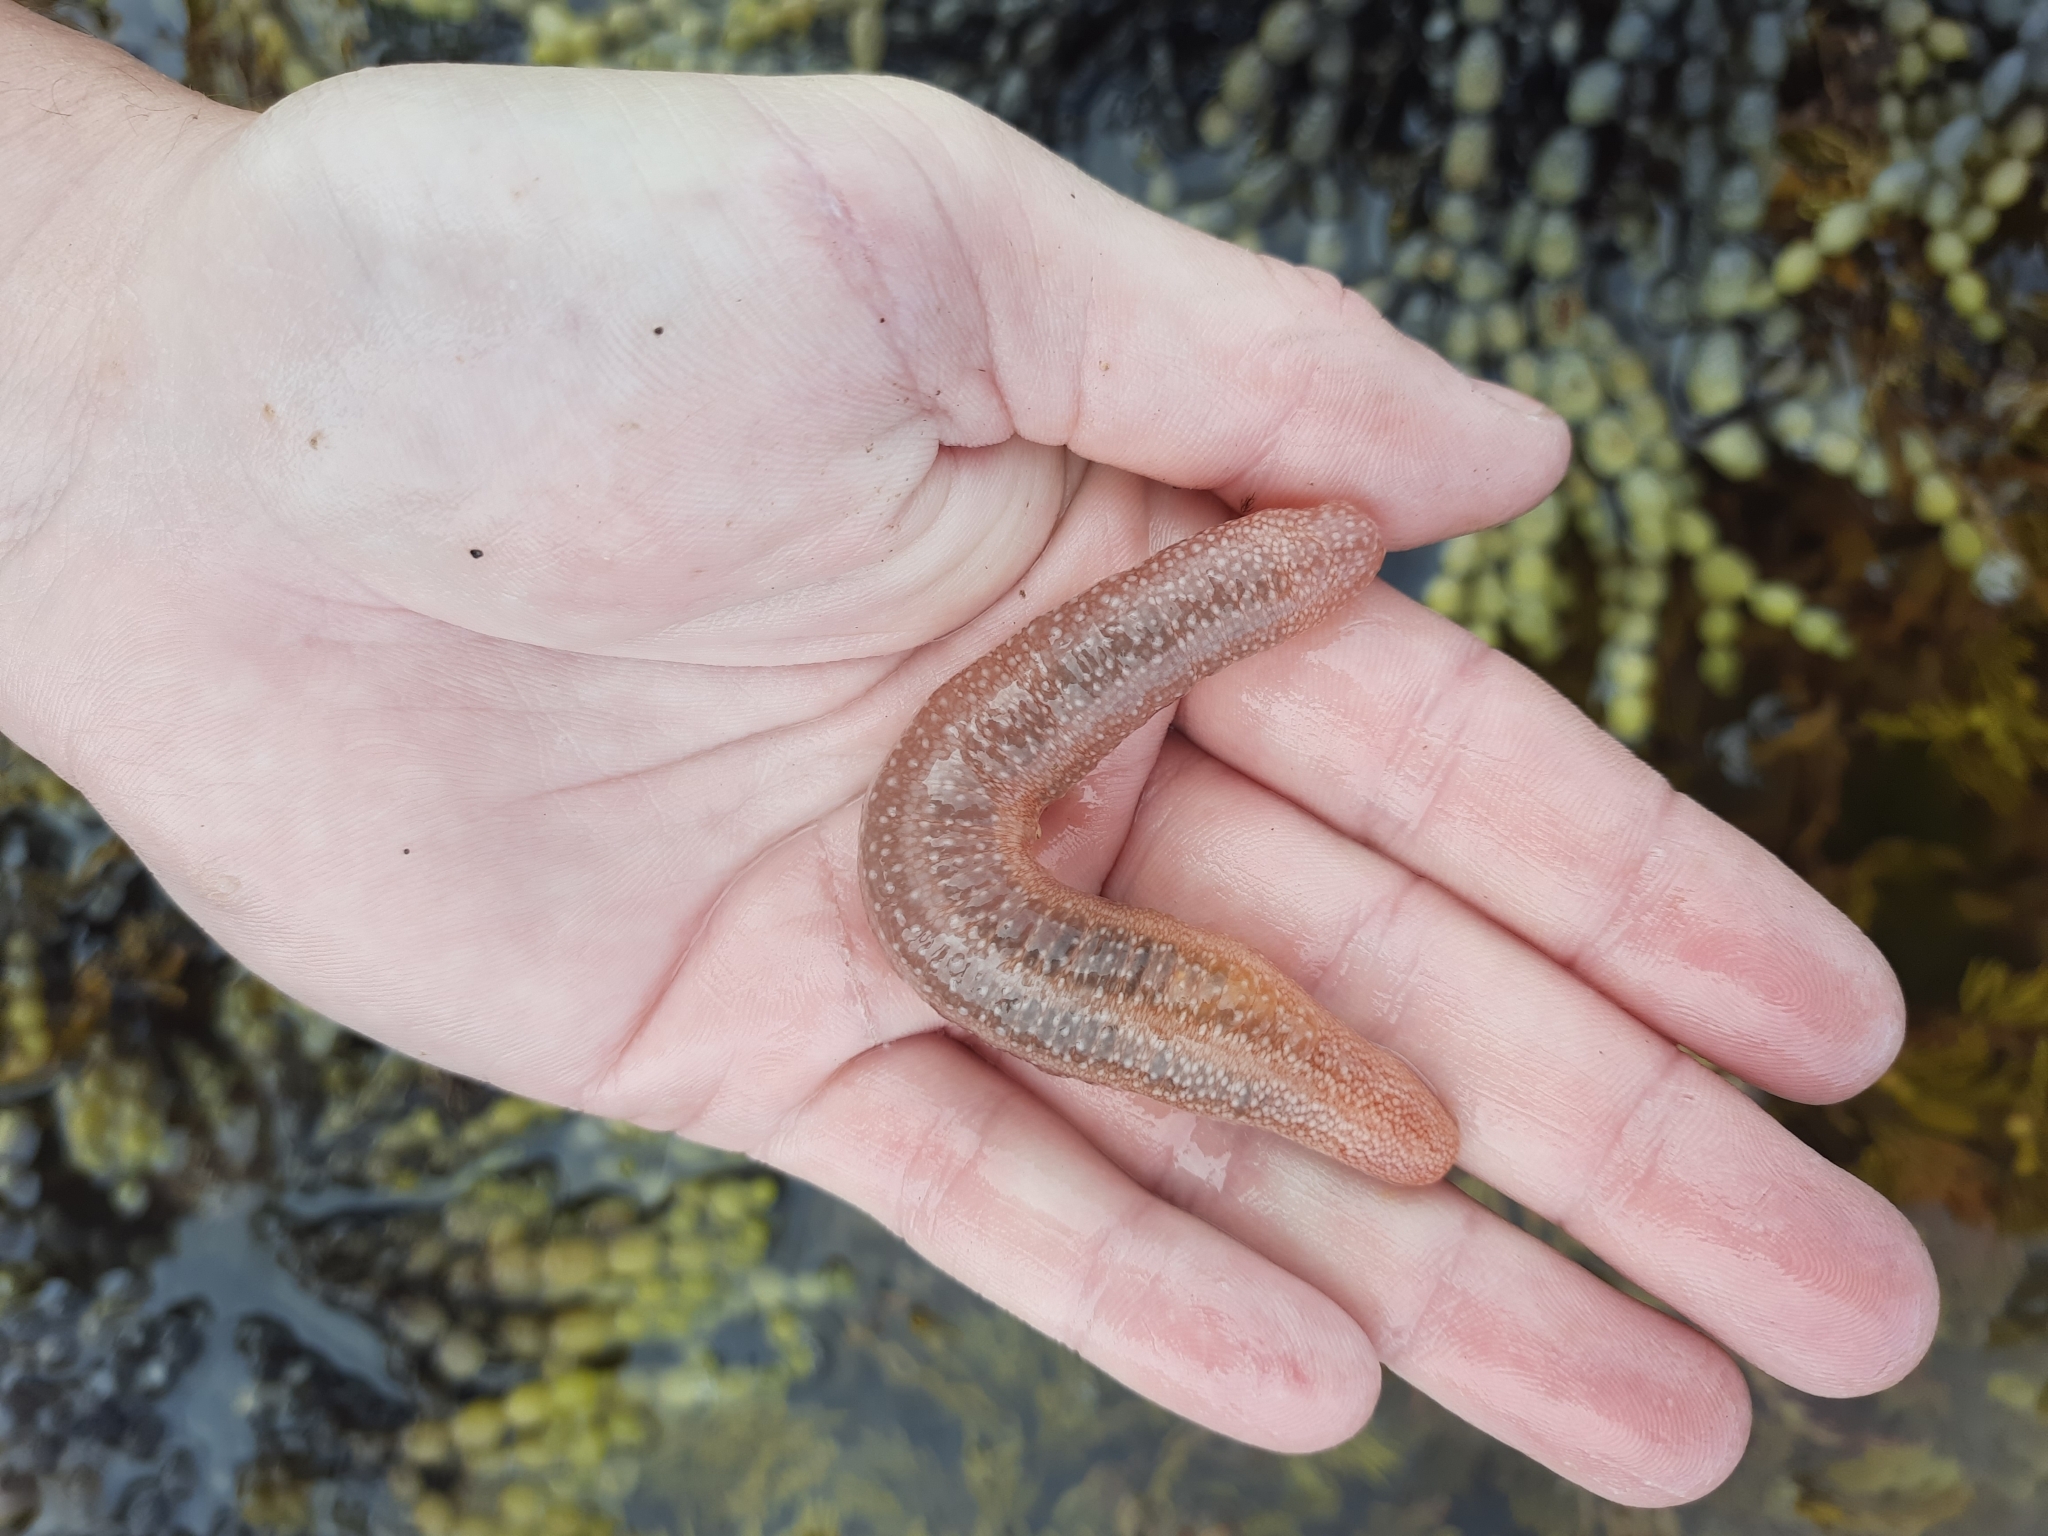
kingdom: Animalia
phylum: Echinodermata
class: Holothuroidea
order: Apodida
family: Chiridotidae
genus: Chiridota
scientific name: Chiridota gigas
